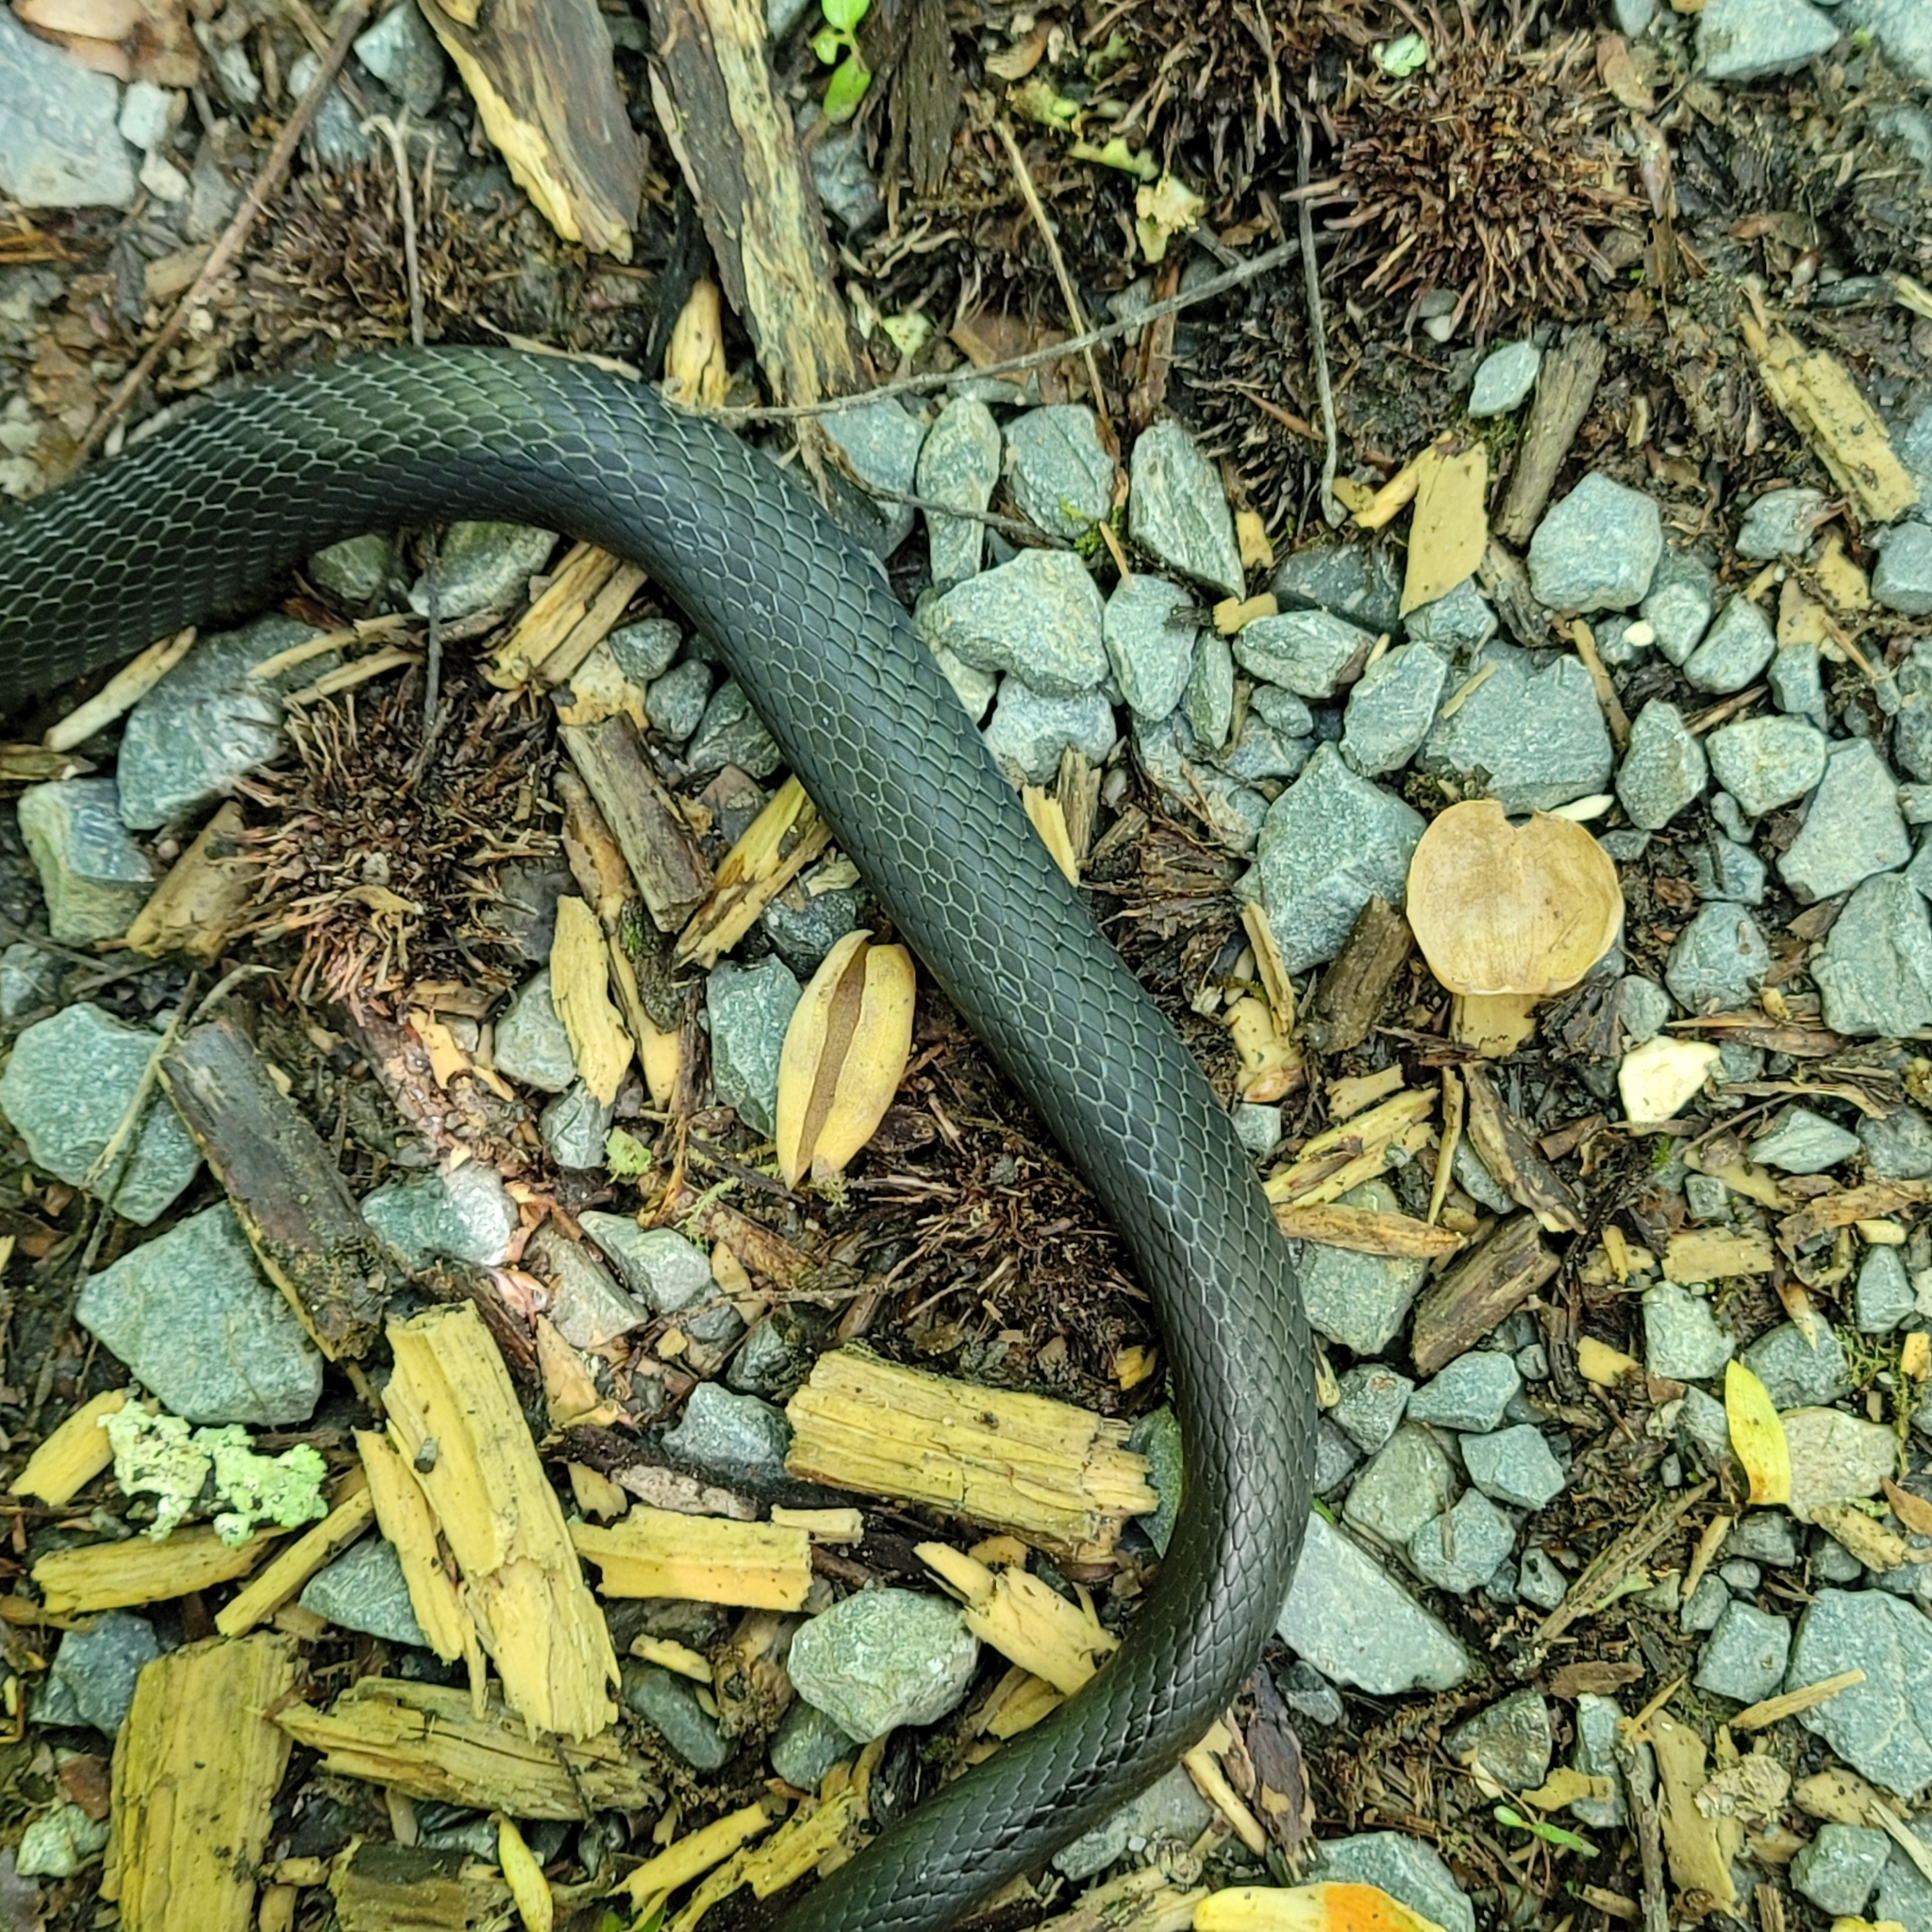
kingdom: Animalia
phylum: Chordata
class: Squamata
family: Colubridae
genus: Coluber
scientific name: Coluber constrictor
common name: Eastern racer
